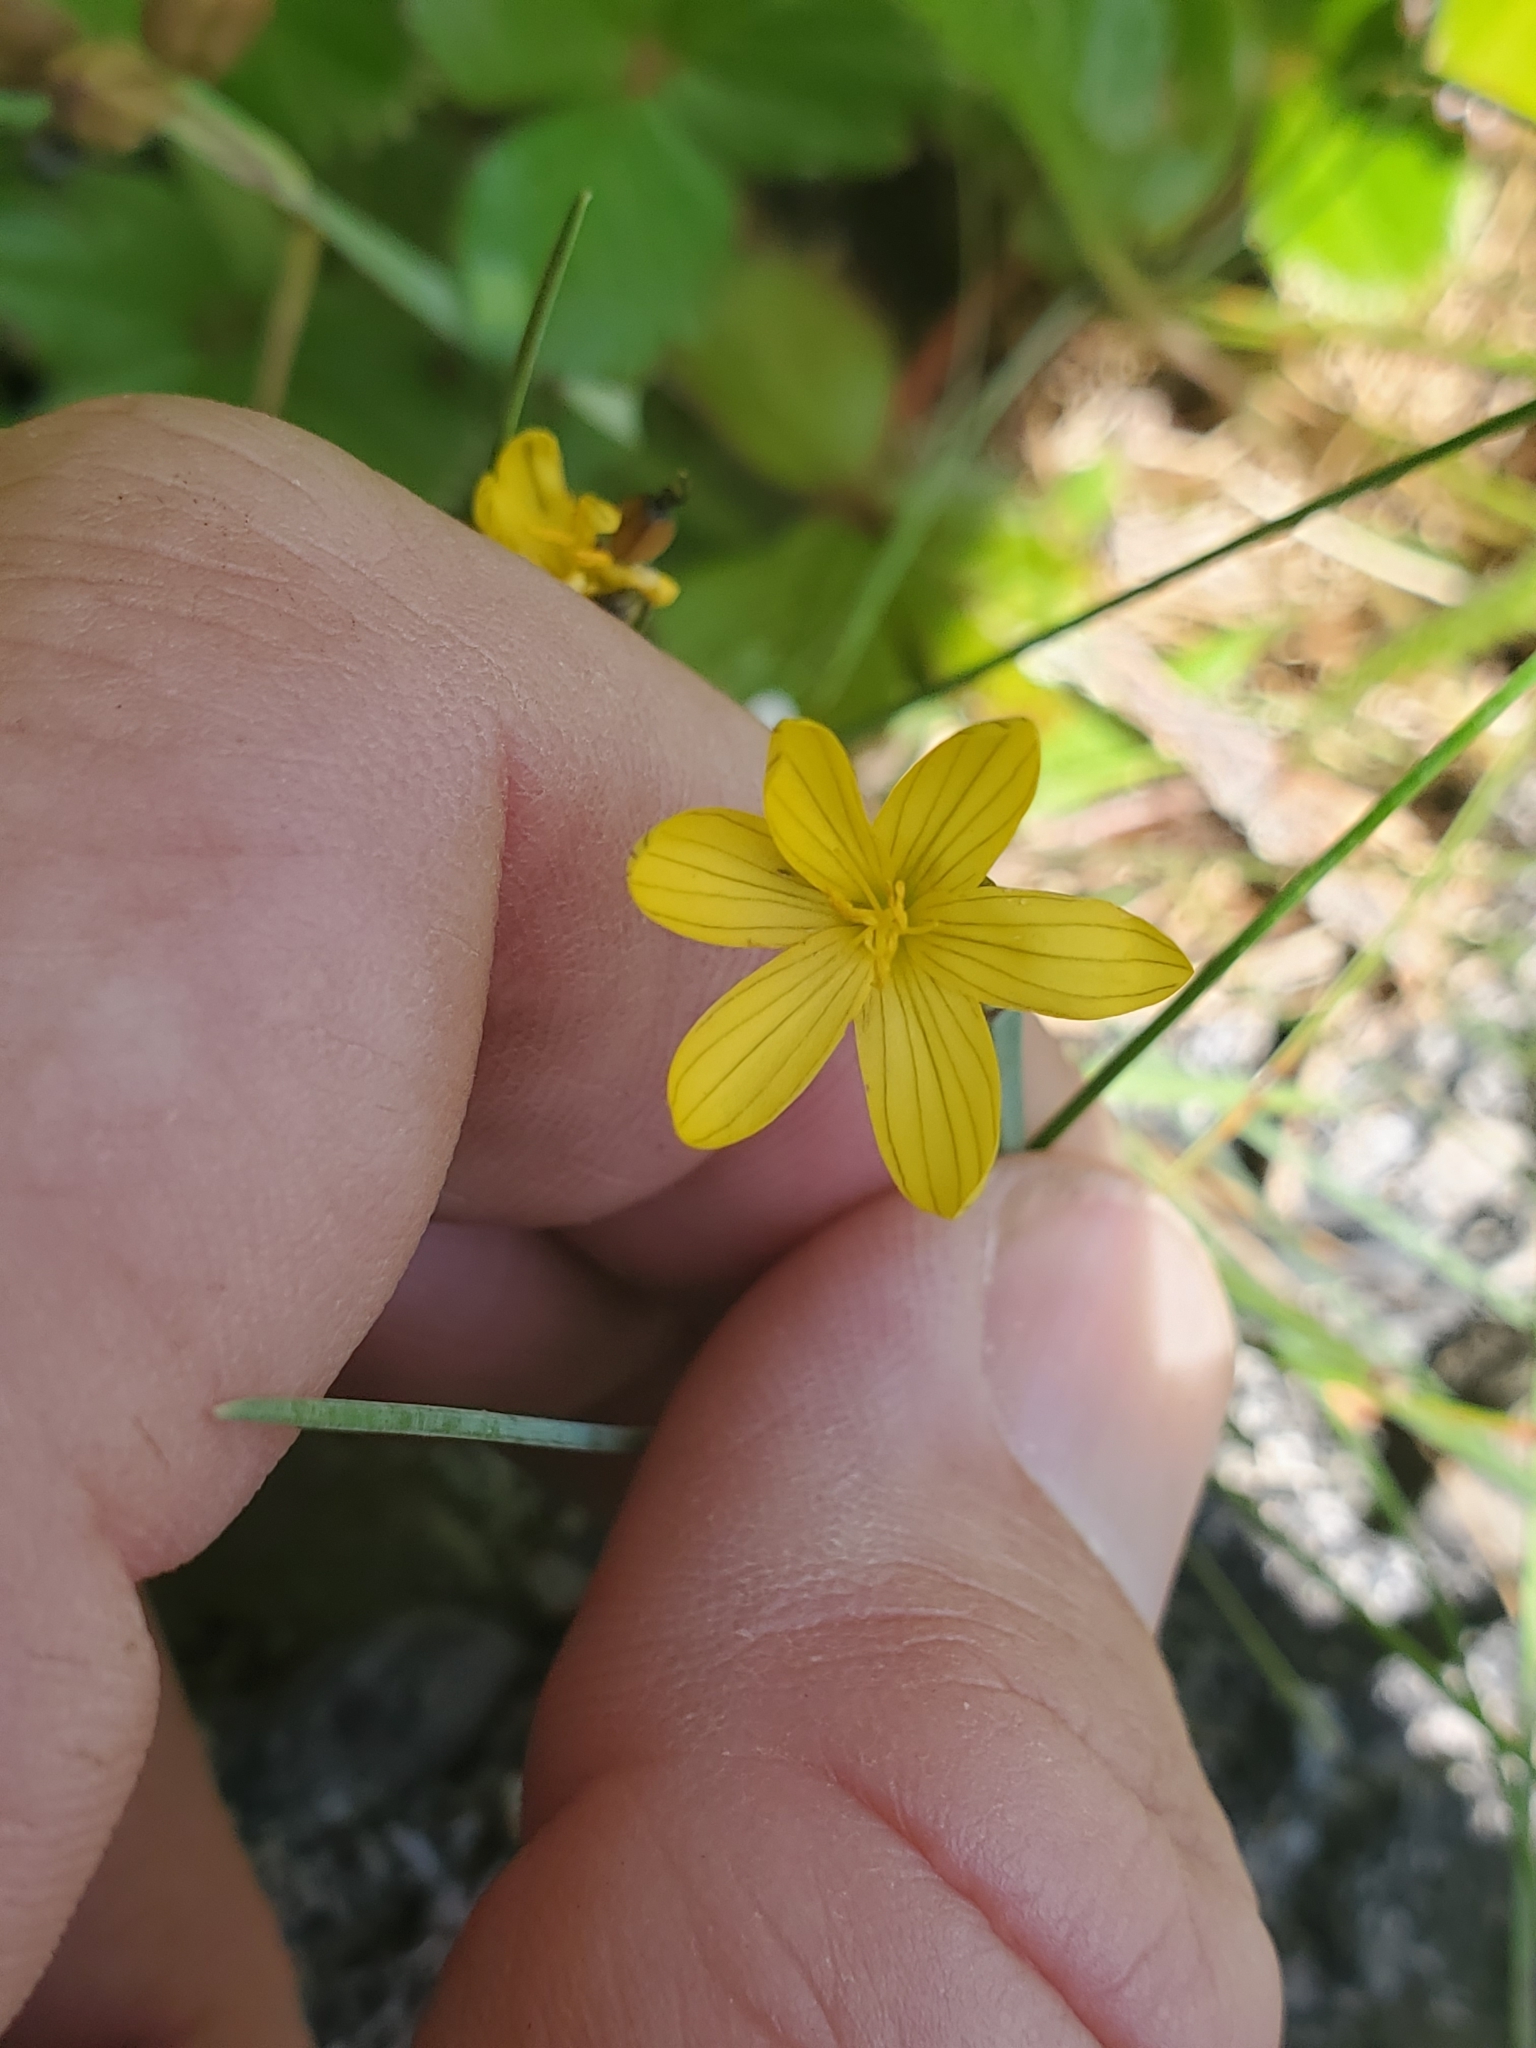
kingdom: Plantae
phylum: Tracheophyta
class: Liliopsida
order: Asparagales
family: Iridaceae
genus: Sisyrinchium
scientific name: Sisyrinchium californicum
